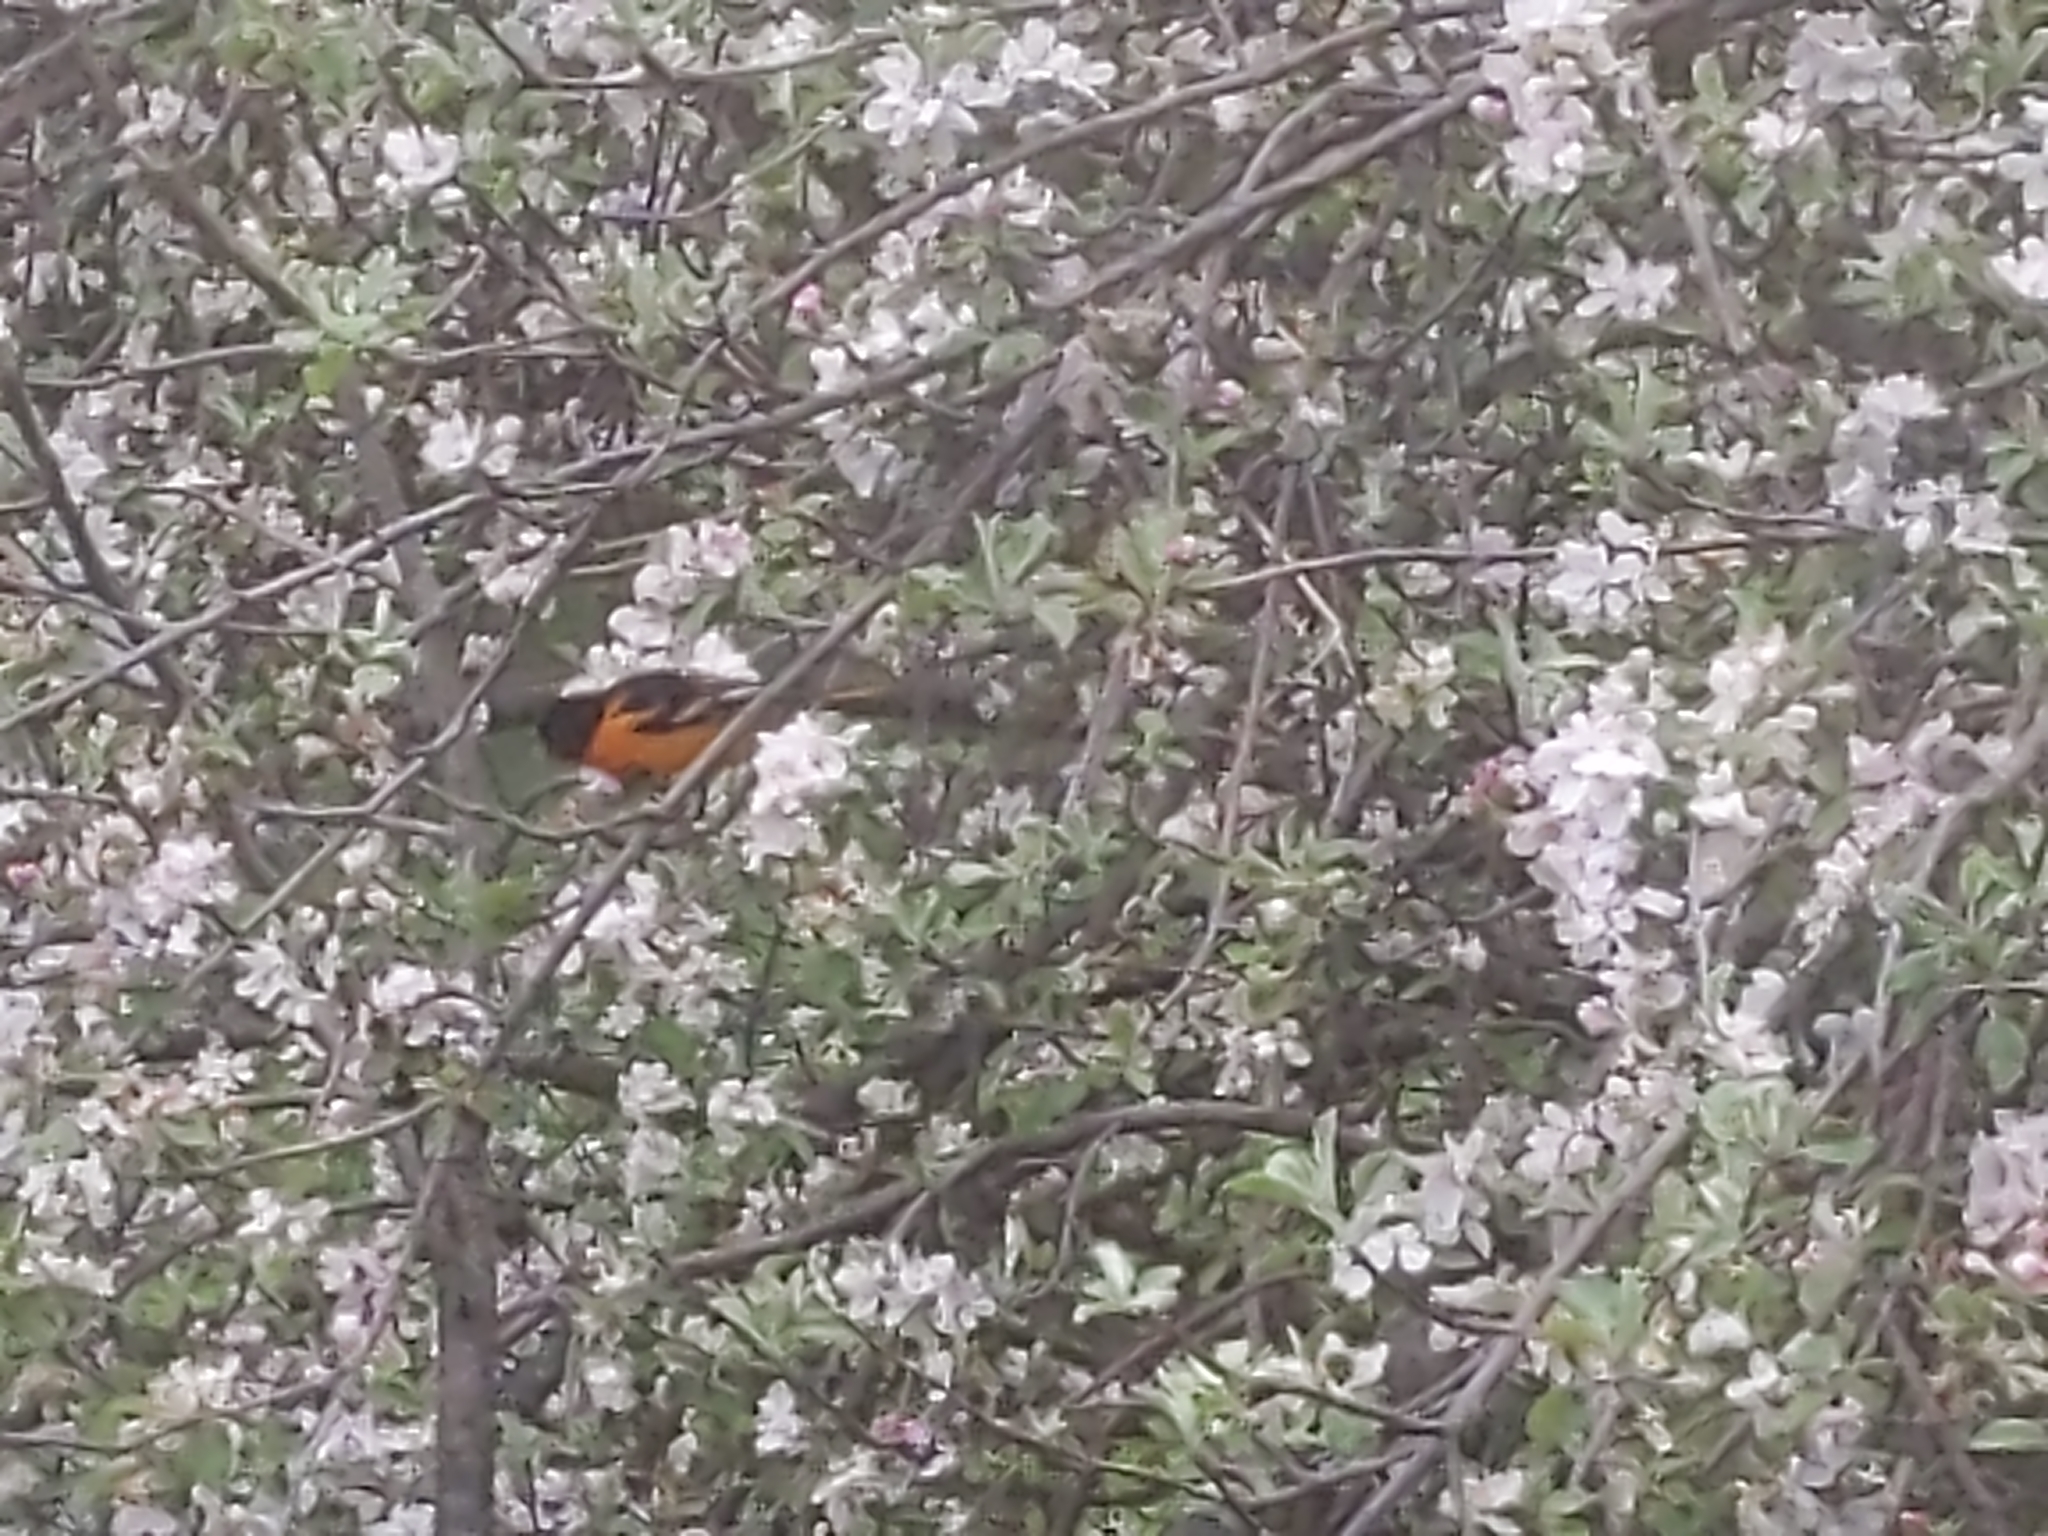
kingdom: Animalia
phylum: Chordata
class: Aves
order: Passeriformes
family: Icteridae
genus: Icterus
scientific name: Icterus galbula
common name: Baltimore oriole
